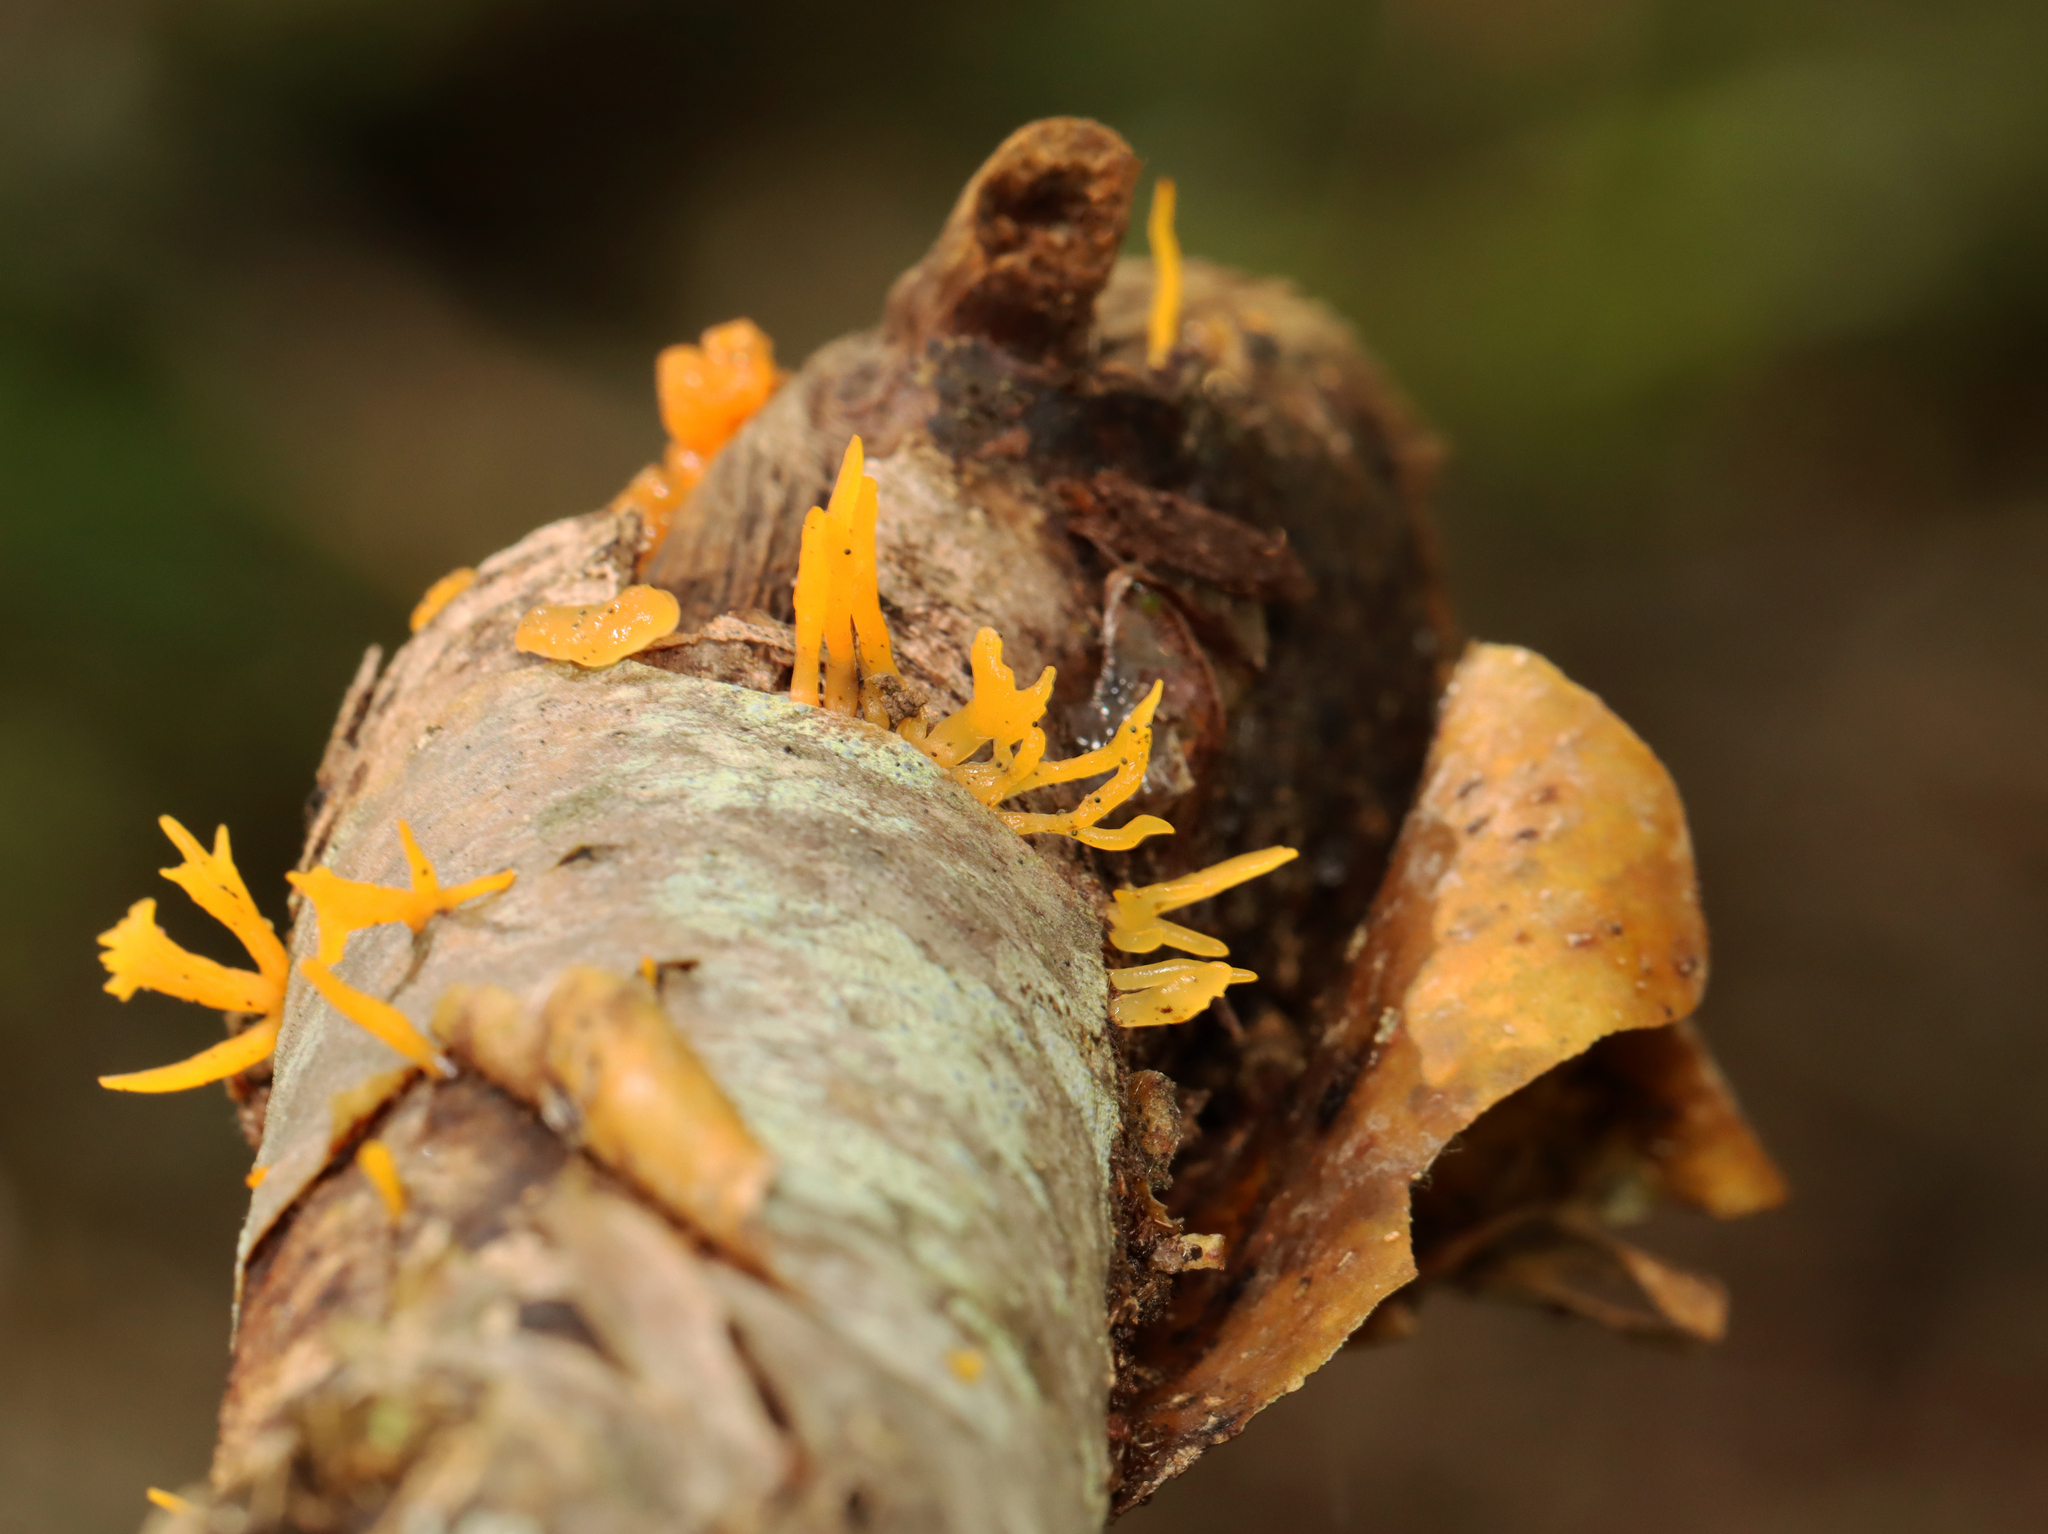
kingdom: Fungi
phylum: Basidiomycota
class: Dacrymycetes
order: Dacrymycetales
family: Dacrymycetaceae
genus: Calocera
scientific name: Calocera cornea
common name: Small stagshorn
